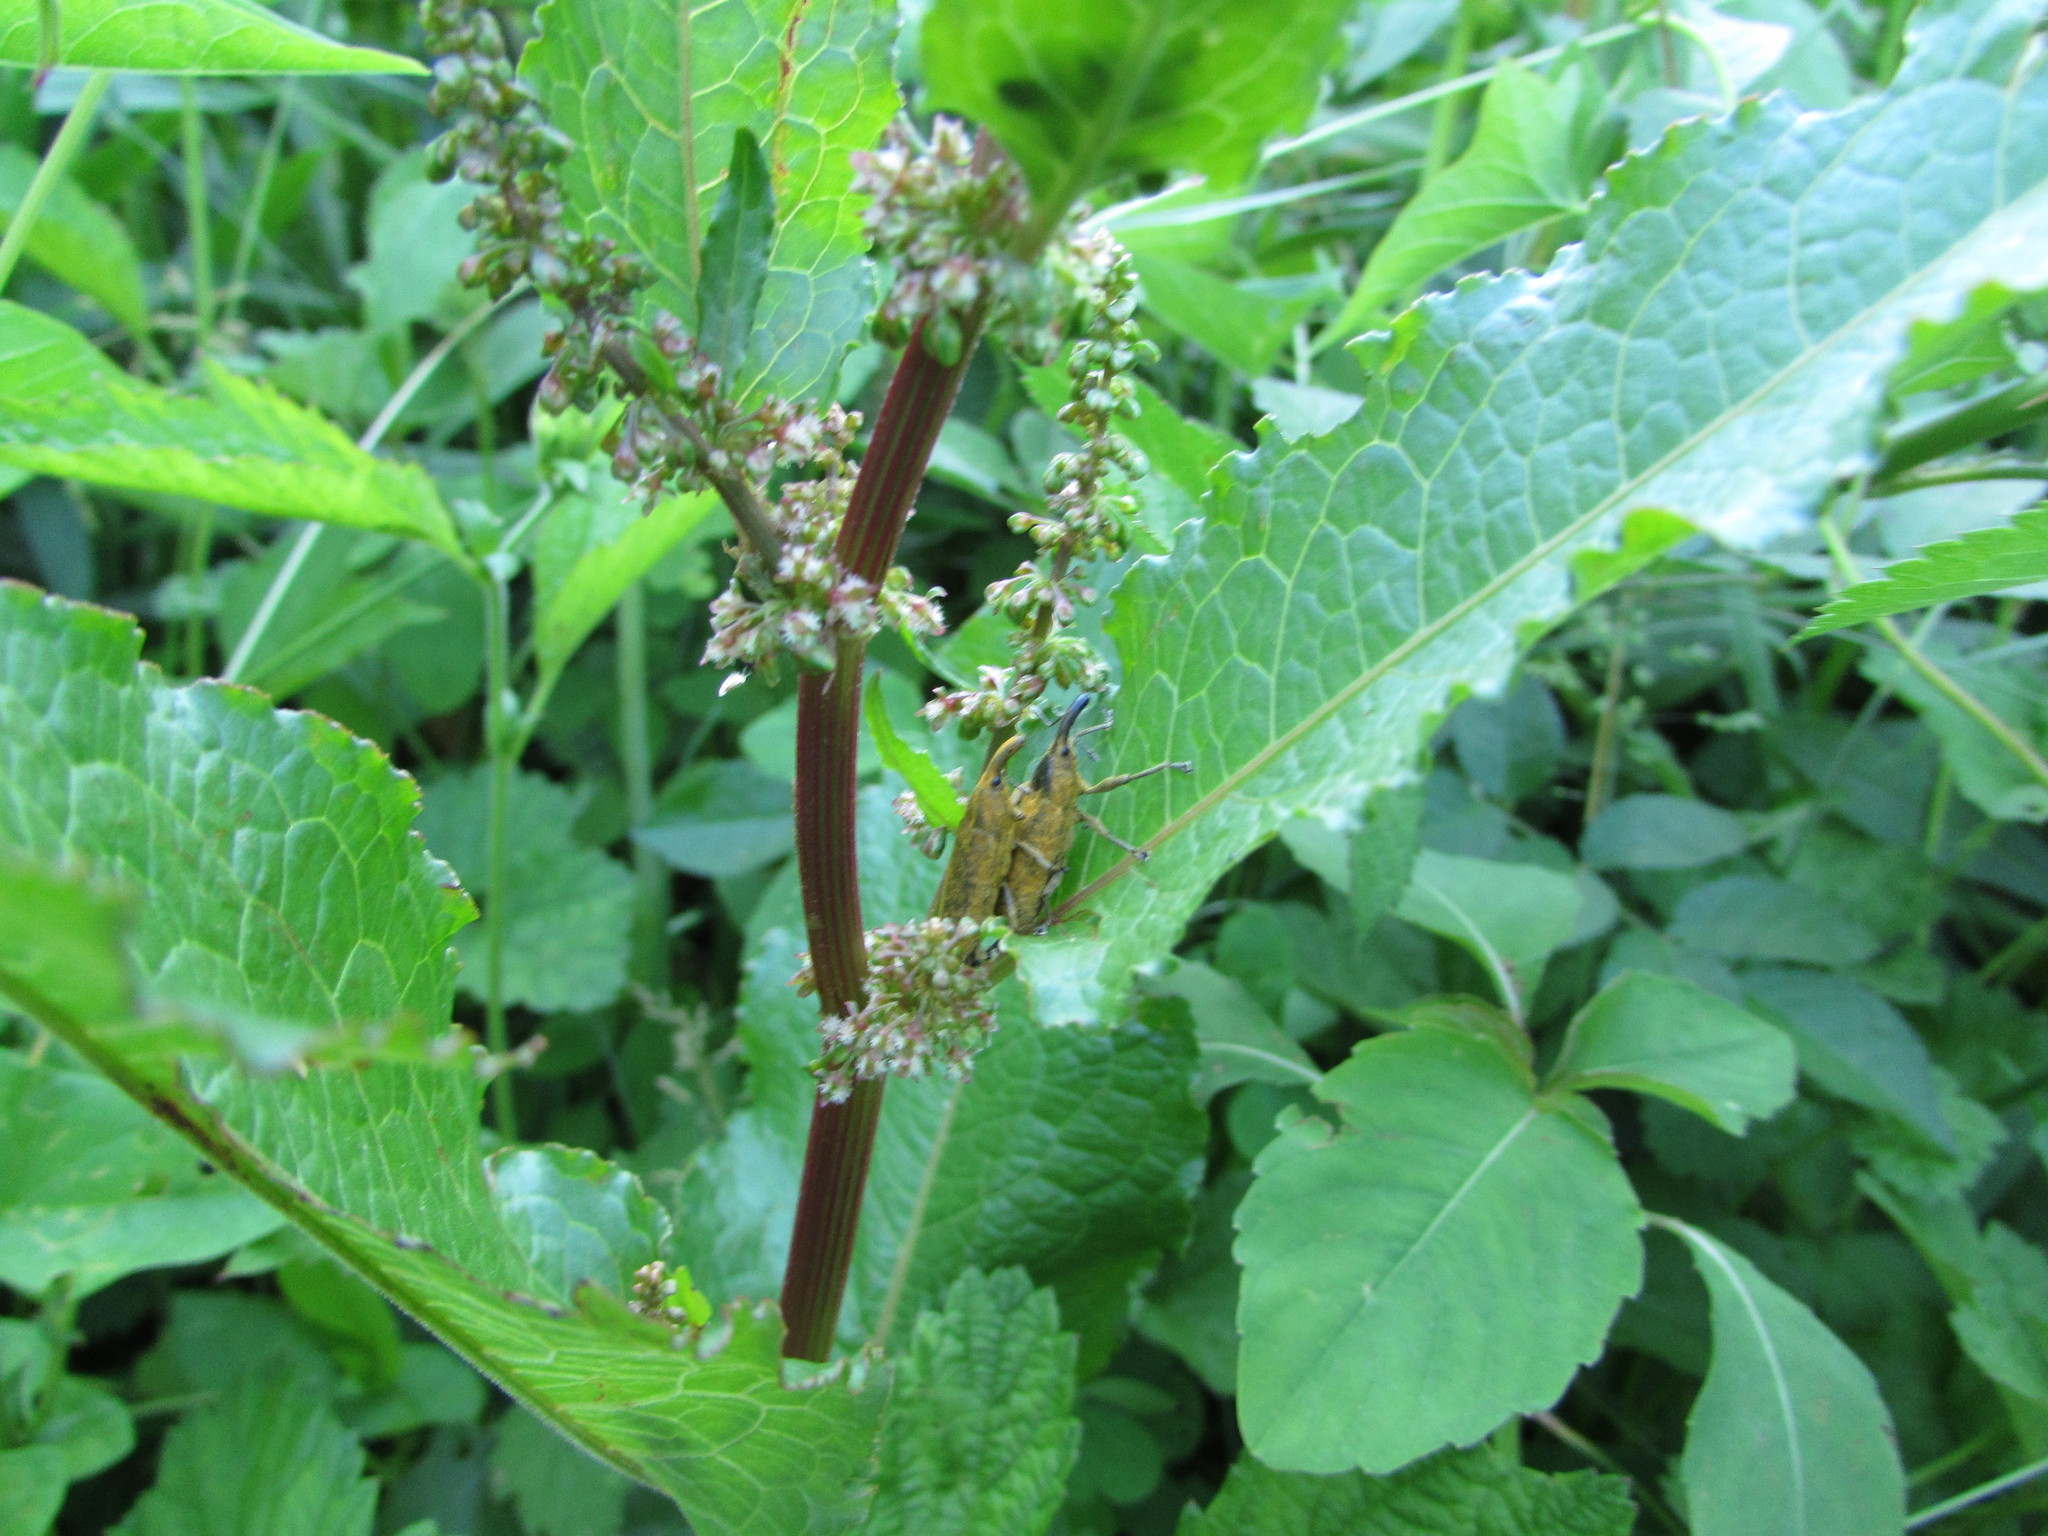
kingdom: Animalia
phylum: Arthropoda
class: Insecta
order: Coleoptera
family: Curculionidae
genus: Lixus
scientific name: Lixus concavus
